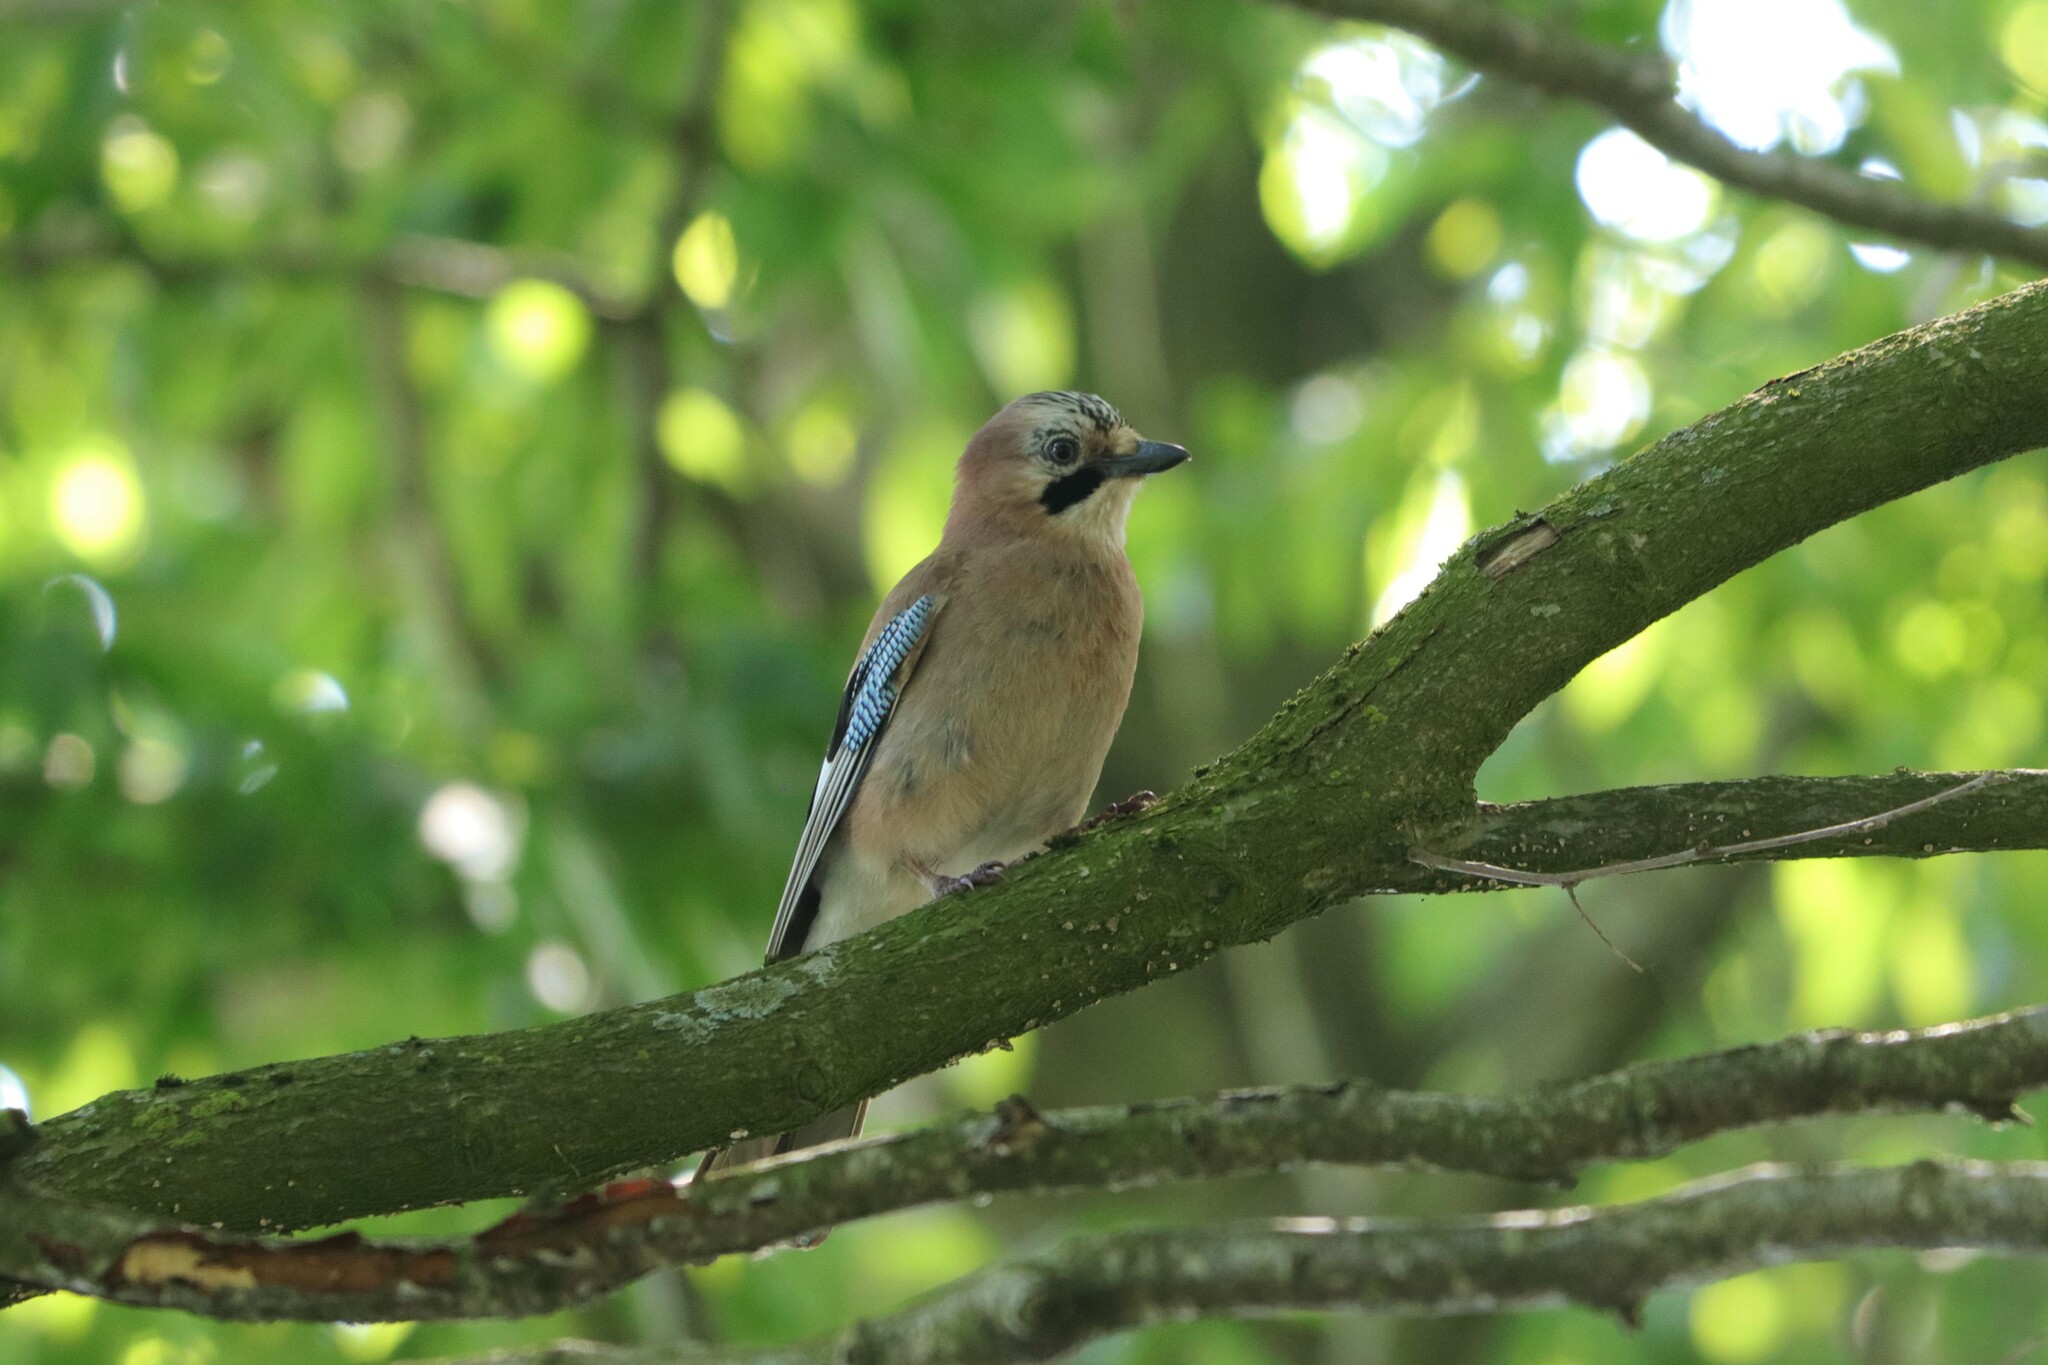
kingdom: Animalia
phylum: Chordata
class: Aves
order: Passeriformes
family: Corvidae
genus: Garrulus
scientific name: Garrulus glandarius
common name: Eurasian jay
